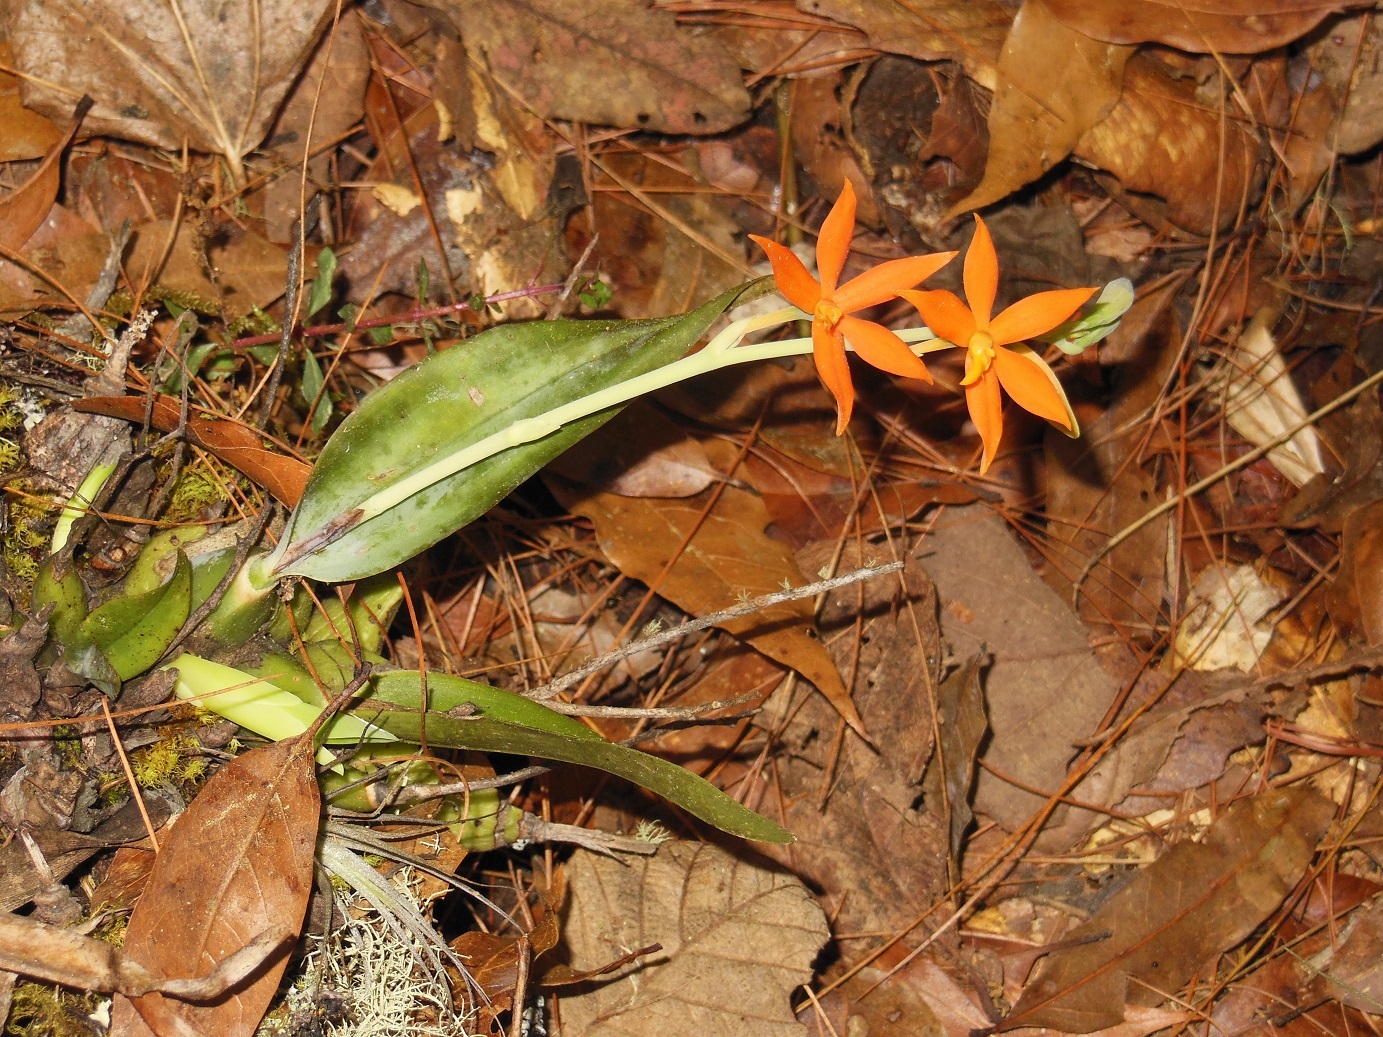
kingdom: Plantae
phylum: Tracheophyta
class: Liliopsida
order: Asparagales
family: Orchidaceae
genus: Prosthechea
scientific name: Prosthechea vitellina
